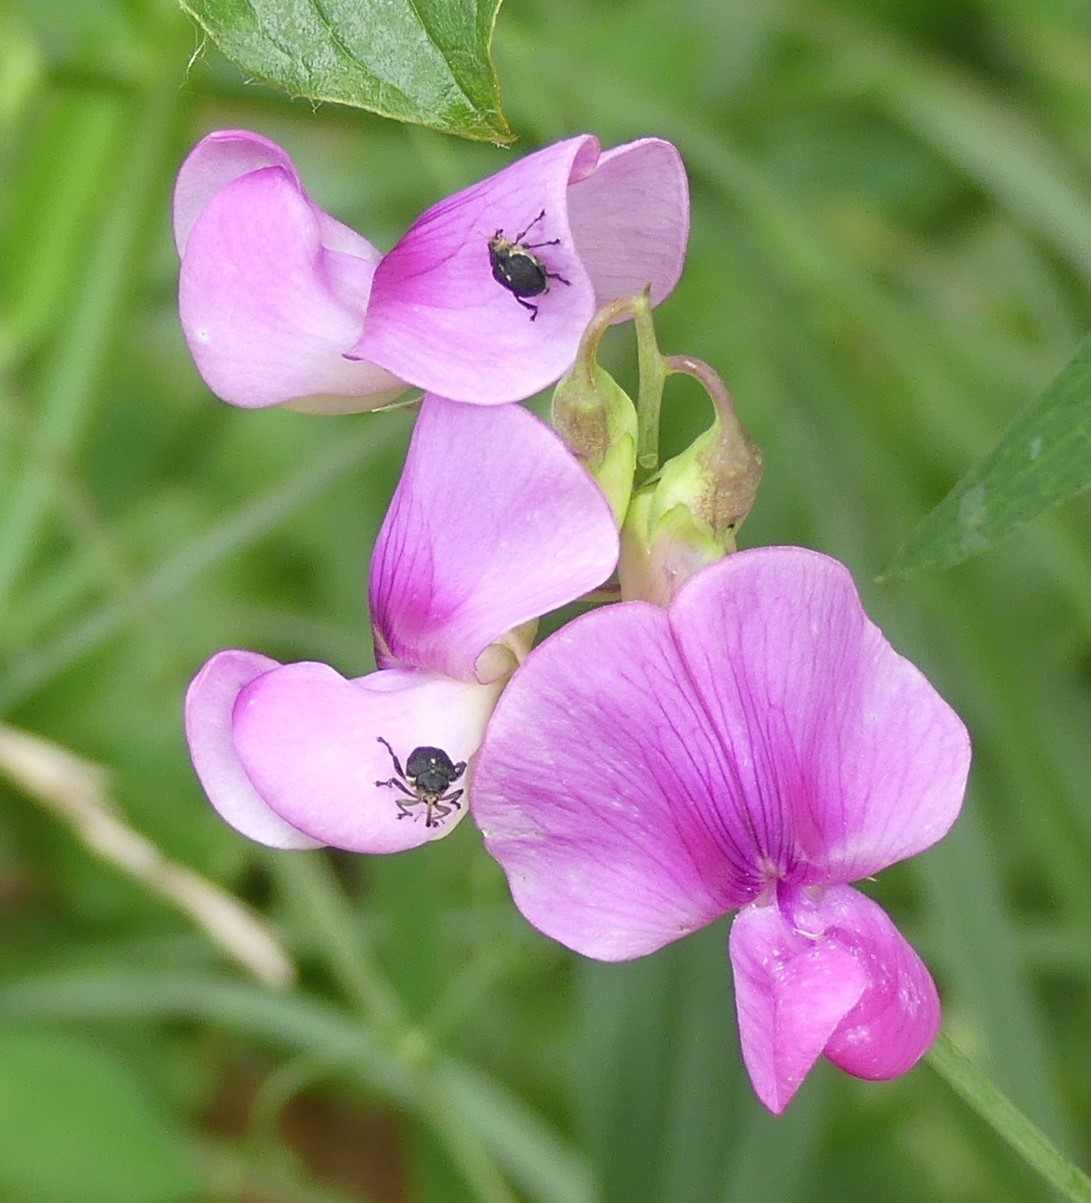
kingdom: Animalia
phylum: Arthropoda
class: Insecta
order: Coleoptera
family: Curculionidae
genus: Mononychus
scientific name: Mononychus punctumalbum
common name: Iris weevil
